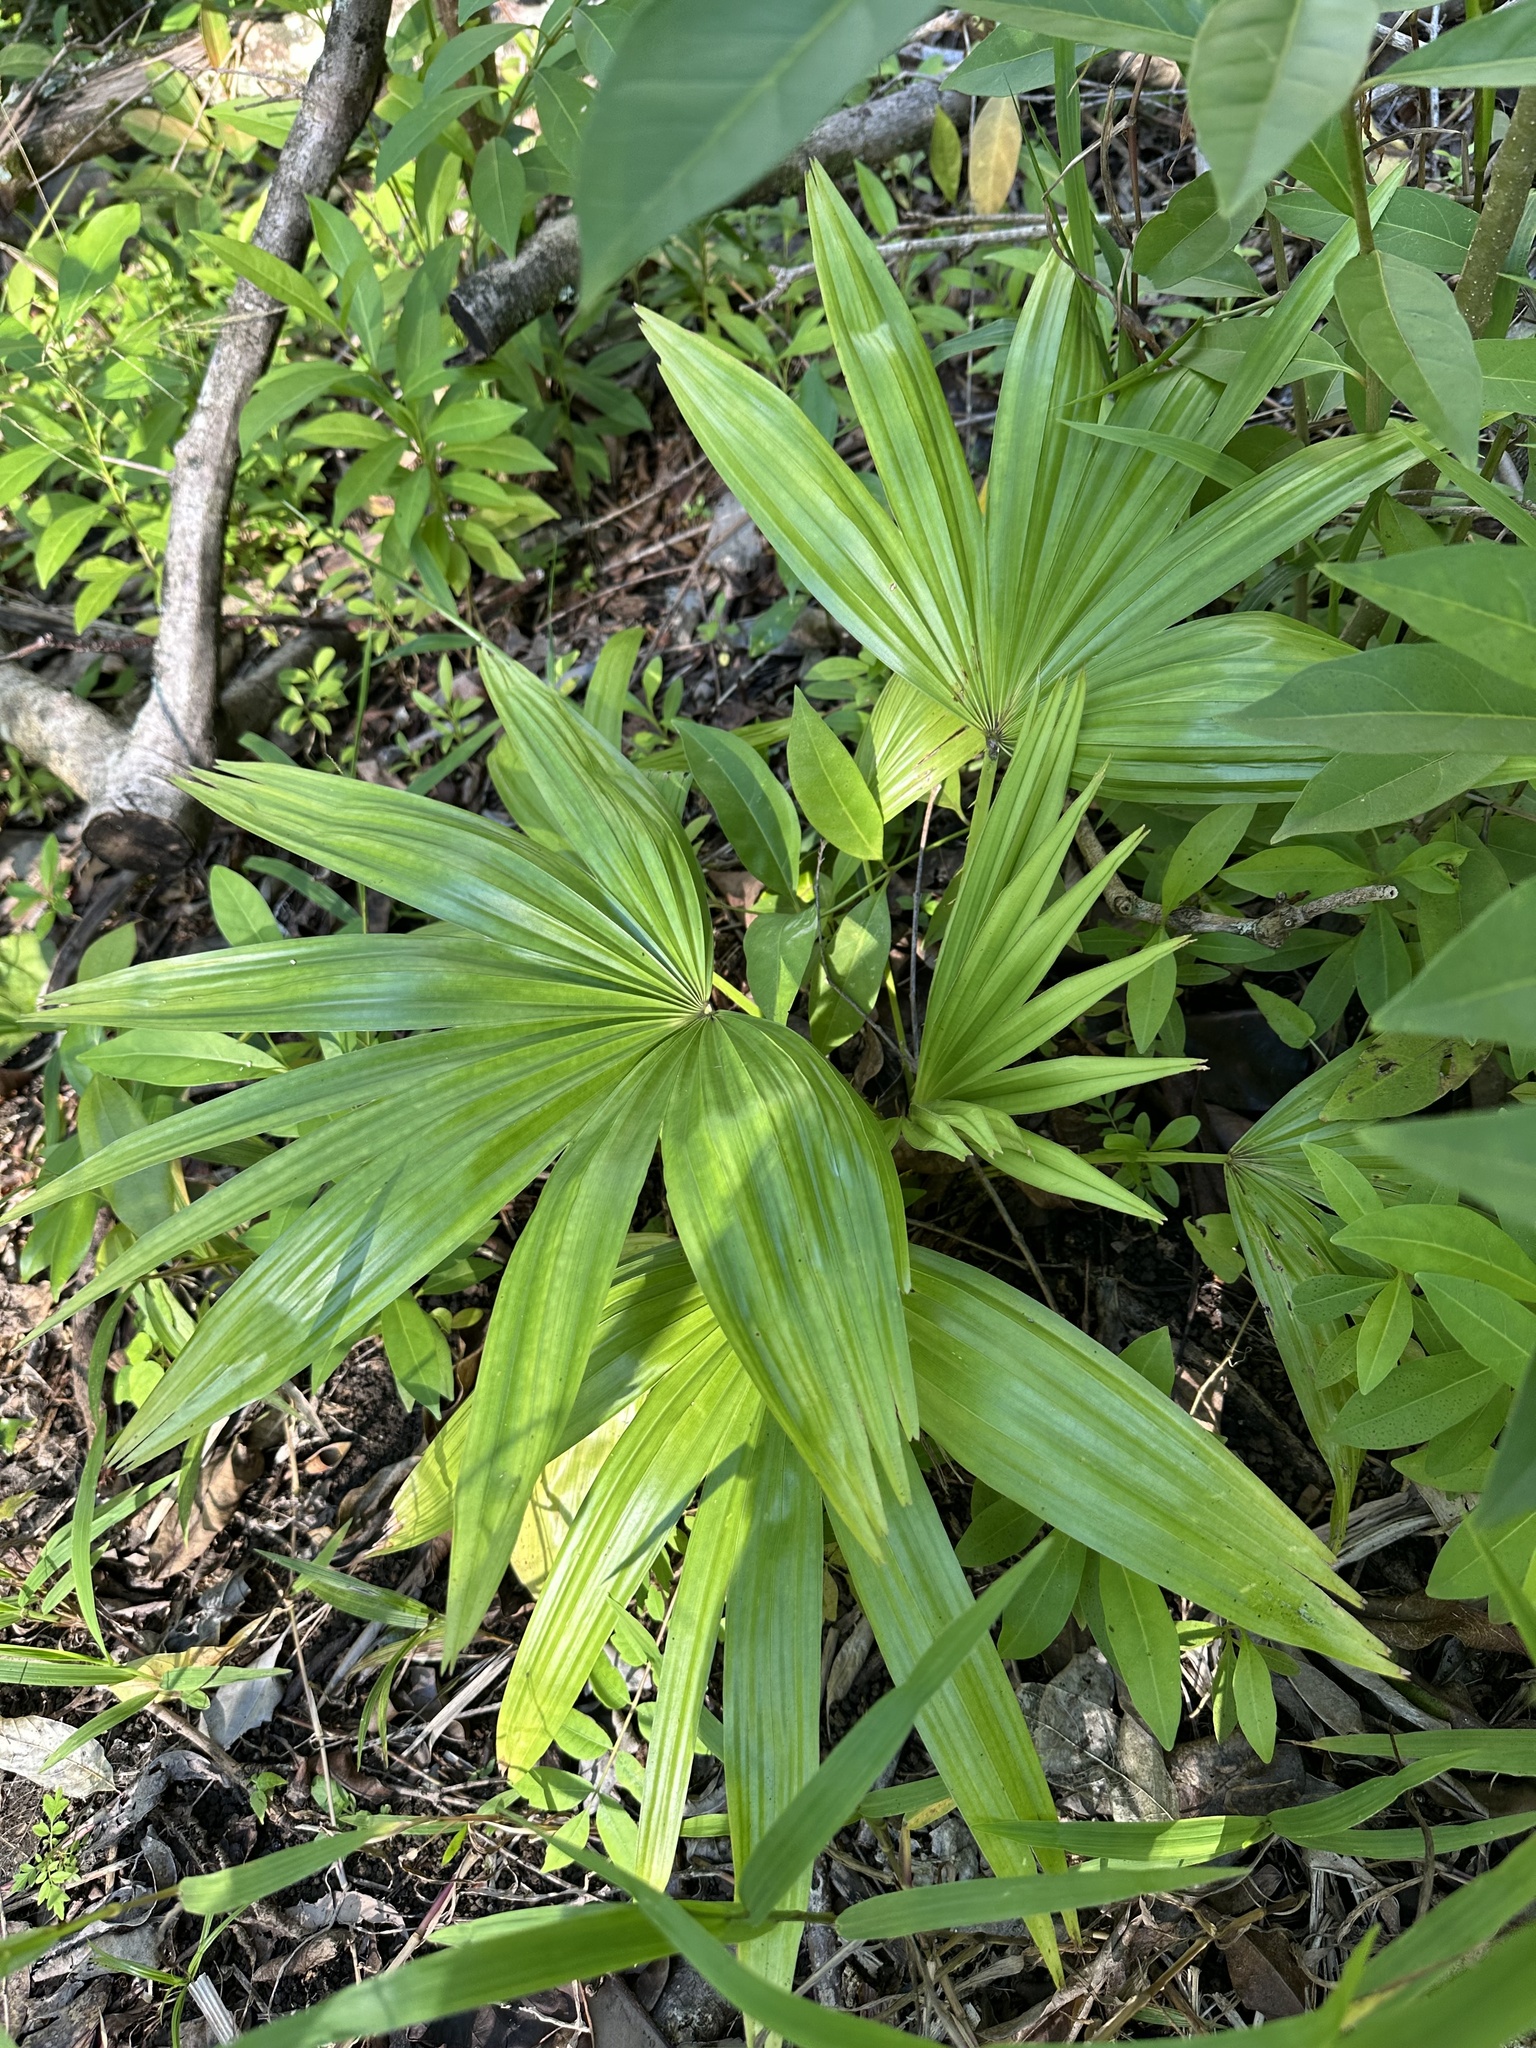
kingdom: Plantae
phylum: Tracheophyta
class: Liliopsida
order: Arecales
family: Arecaceae
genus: Livistona
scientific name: Livistona chinensis
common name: Fountain palm
